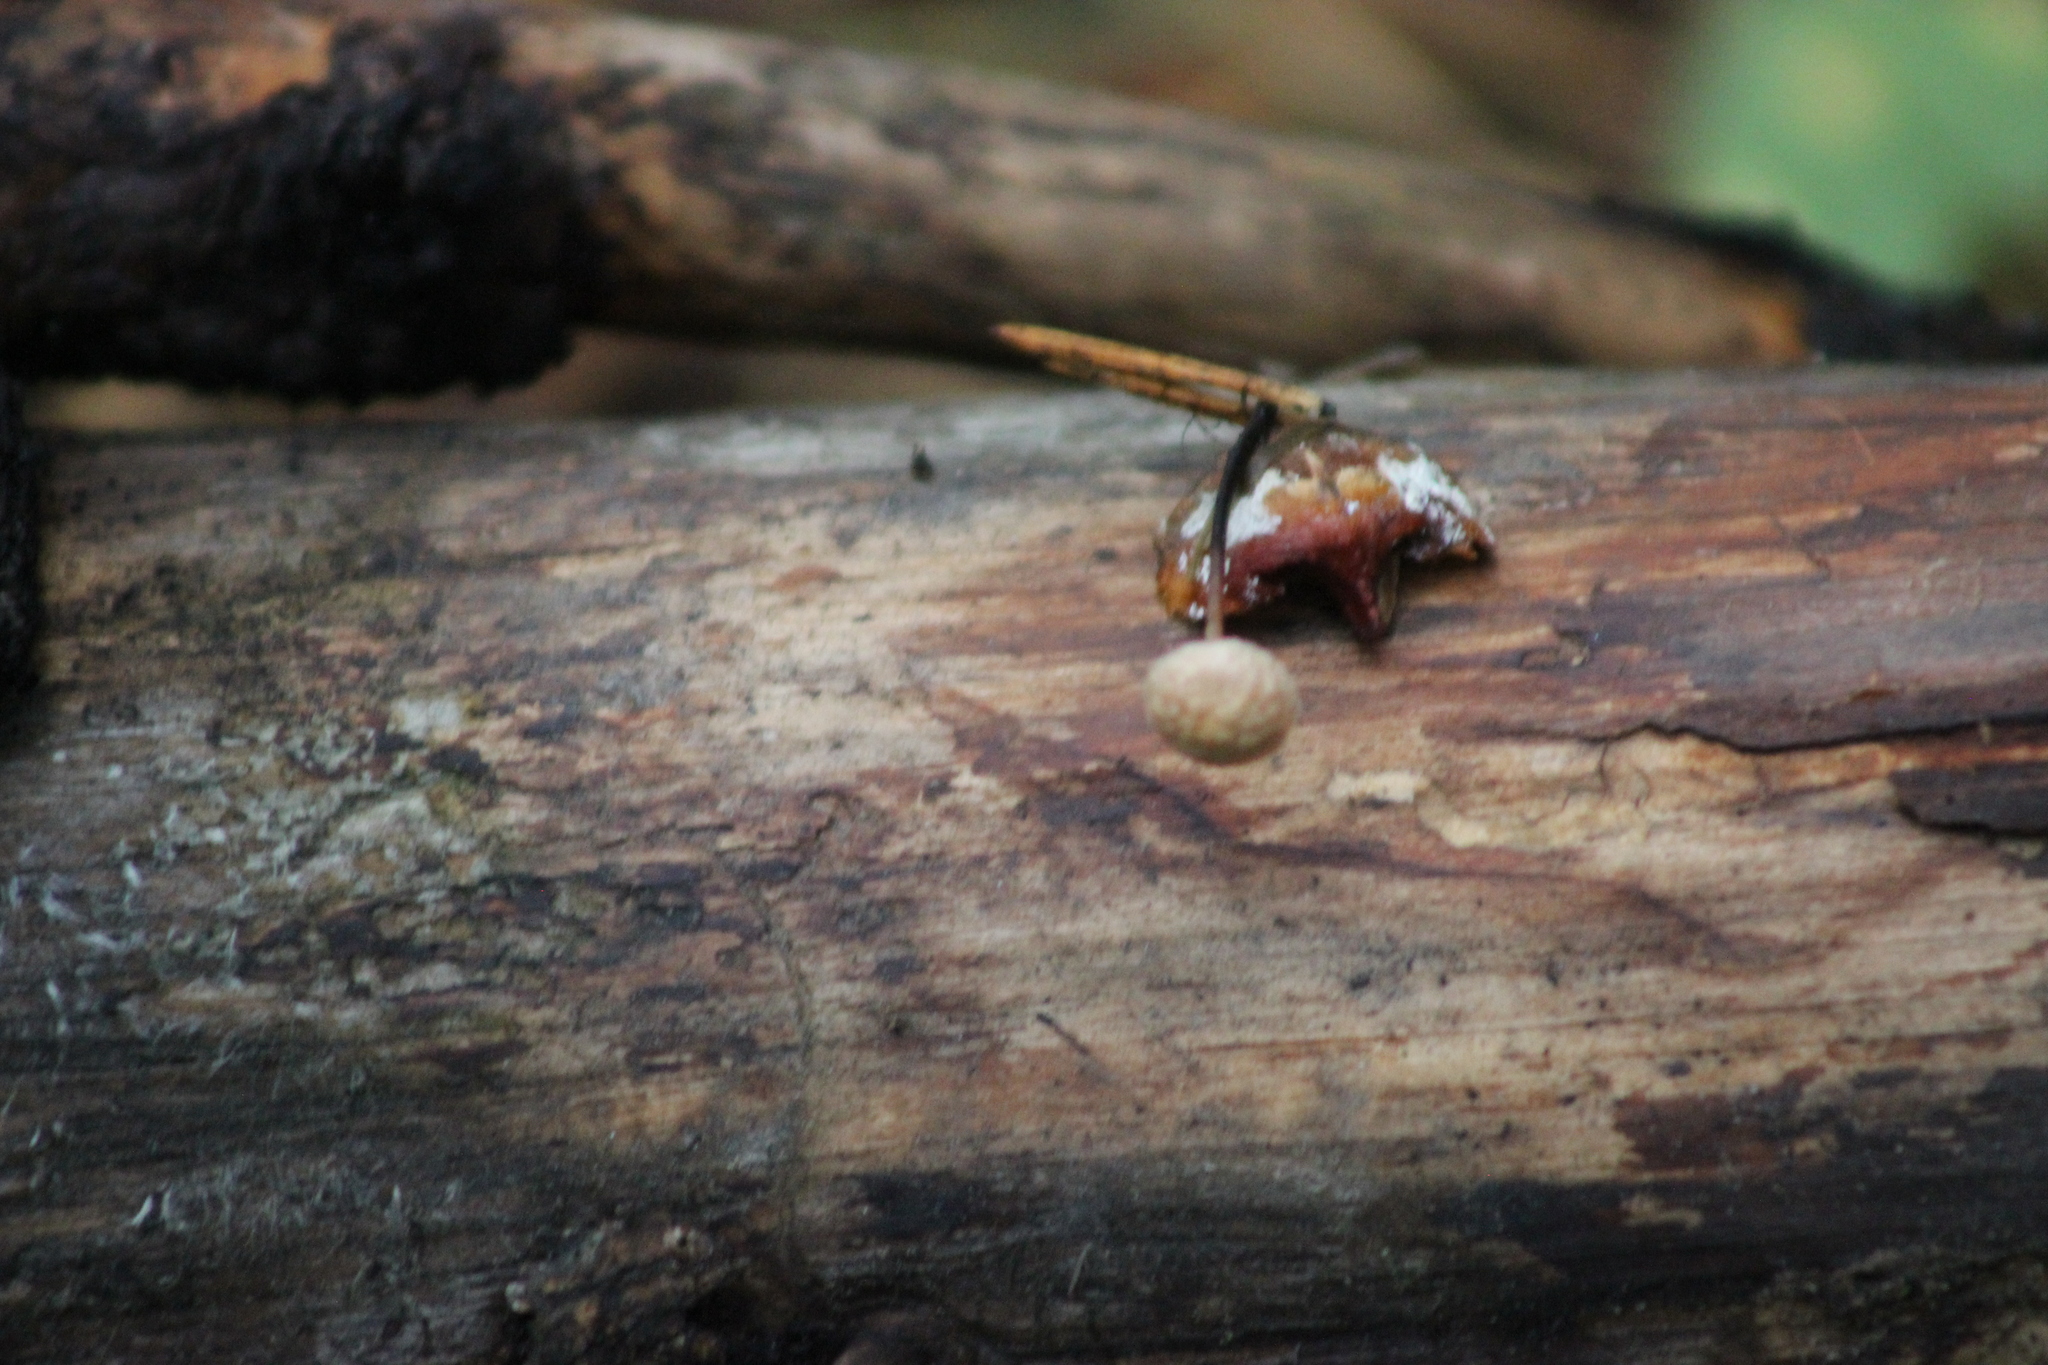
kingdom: Fungi
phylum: Basidiomycota
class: Agaricomycetes
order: Agaricales
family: Omphalotaceae
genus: Paragymnopus
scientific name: Paragymnopus perforans
